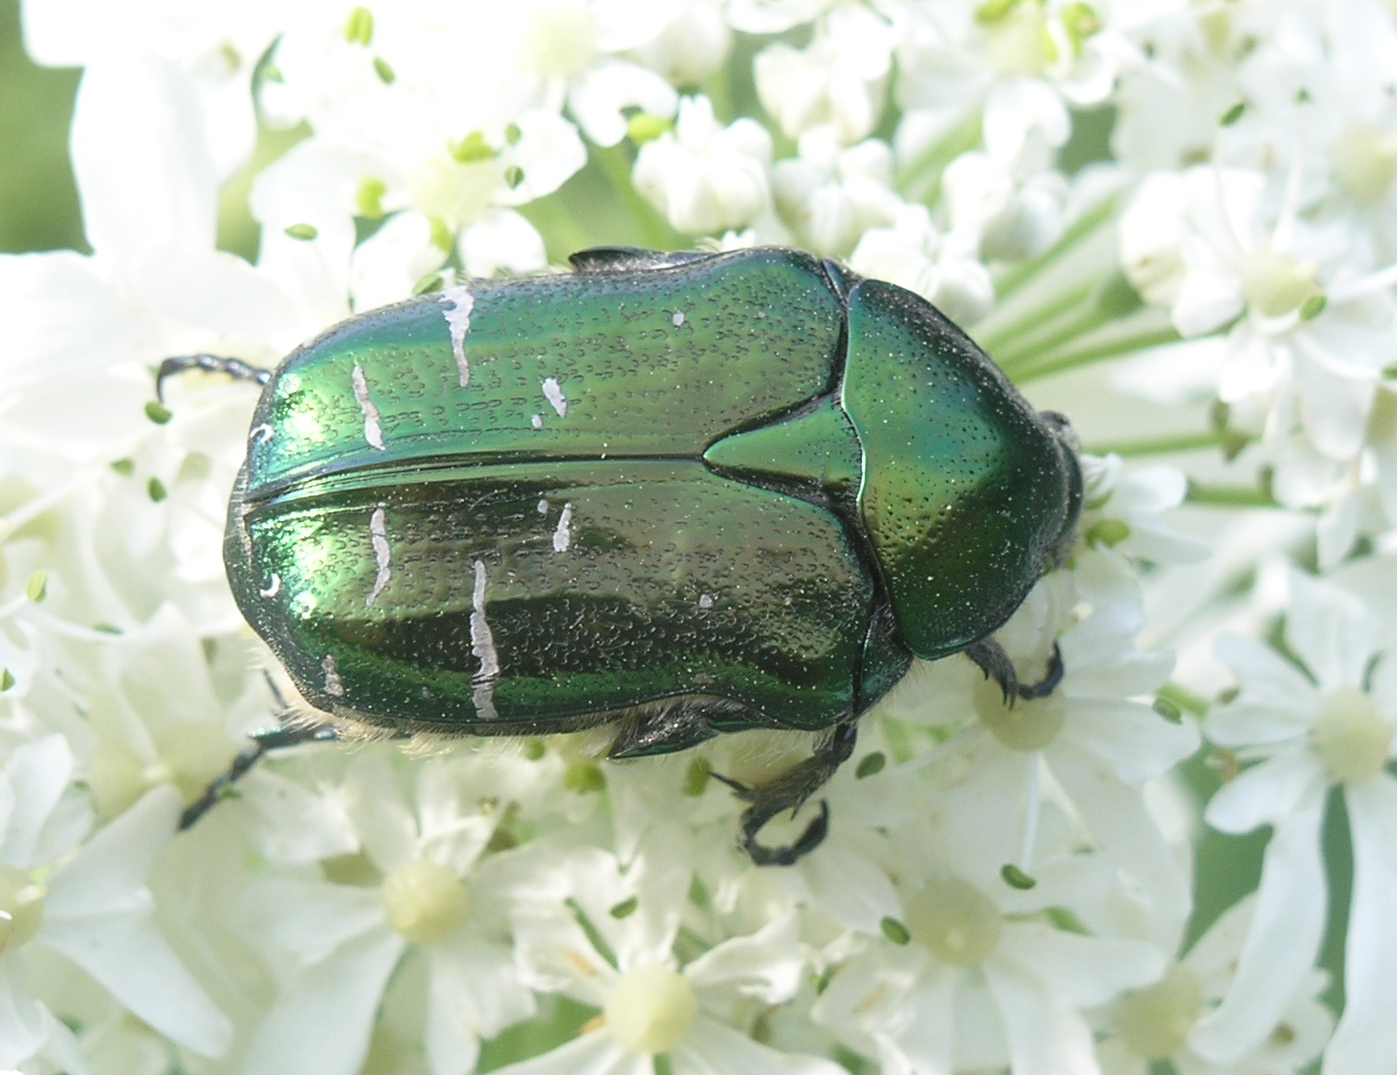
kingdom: Animalia
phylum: Arthropoda
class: Insecta
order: Coleoptera
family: Scarabaeidae
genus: Cetonia
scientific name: Cetonia aurata
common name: Rose chafer
